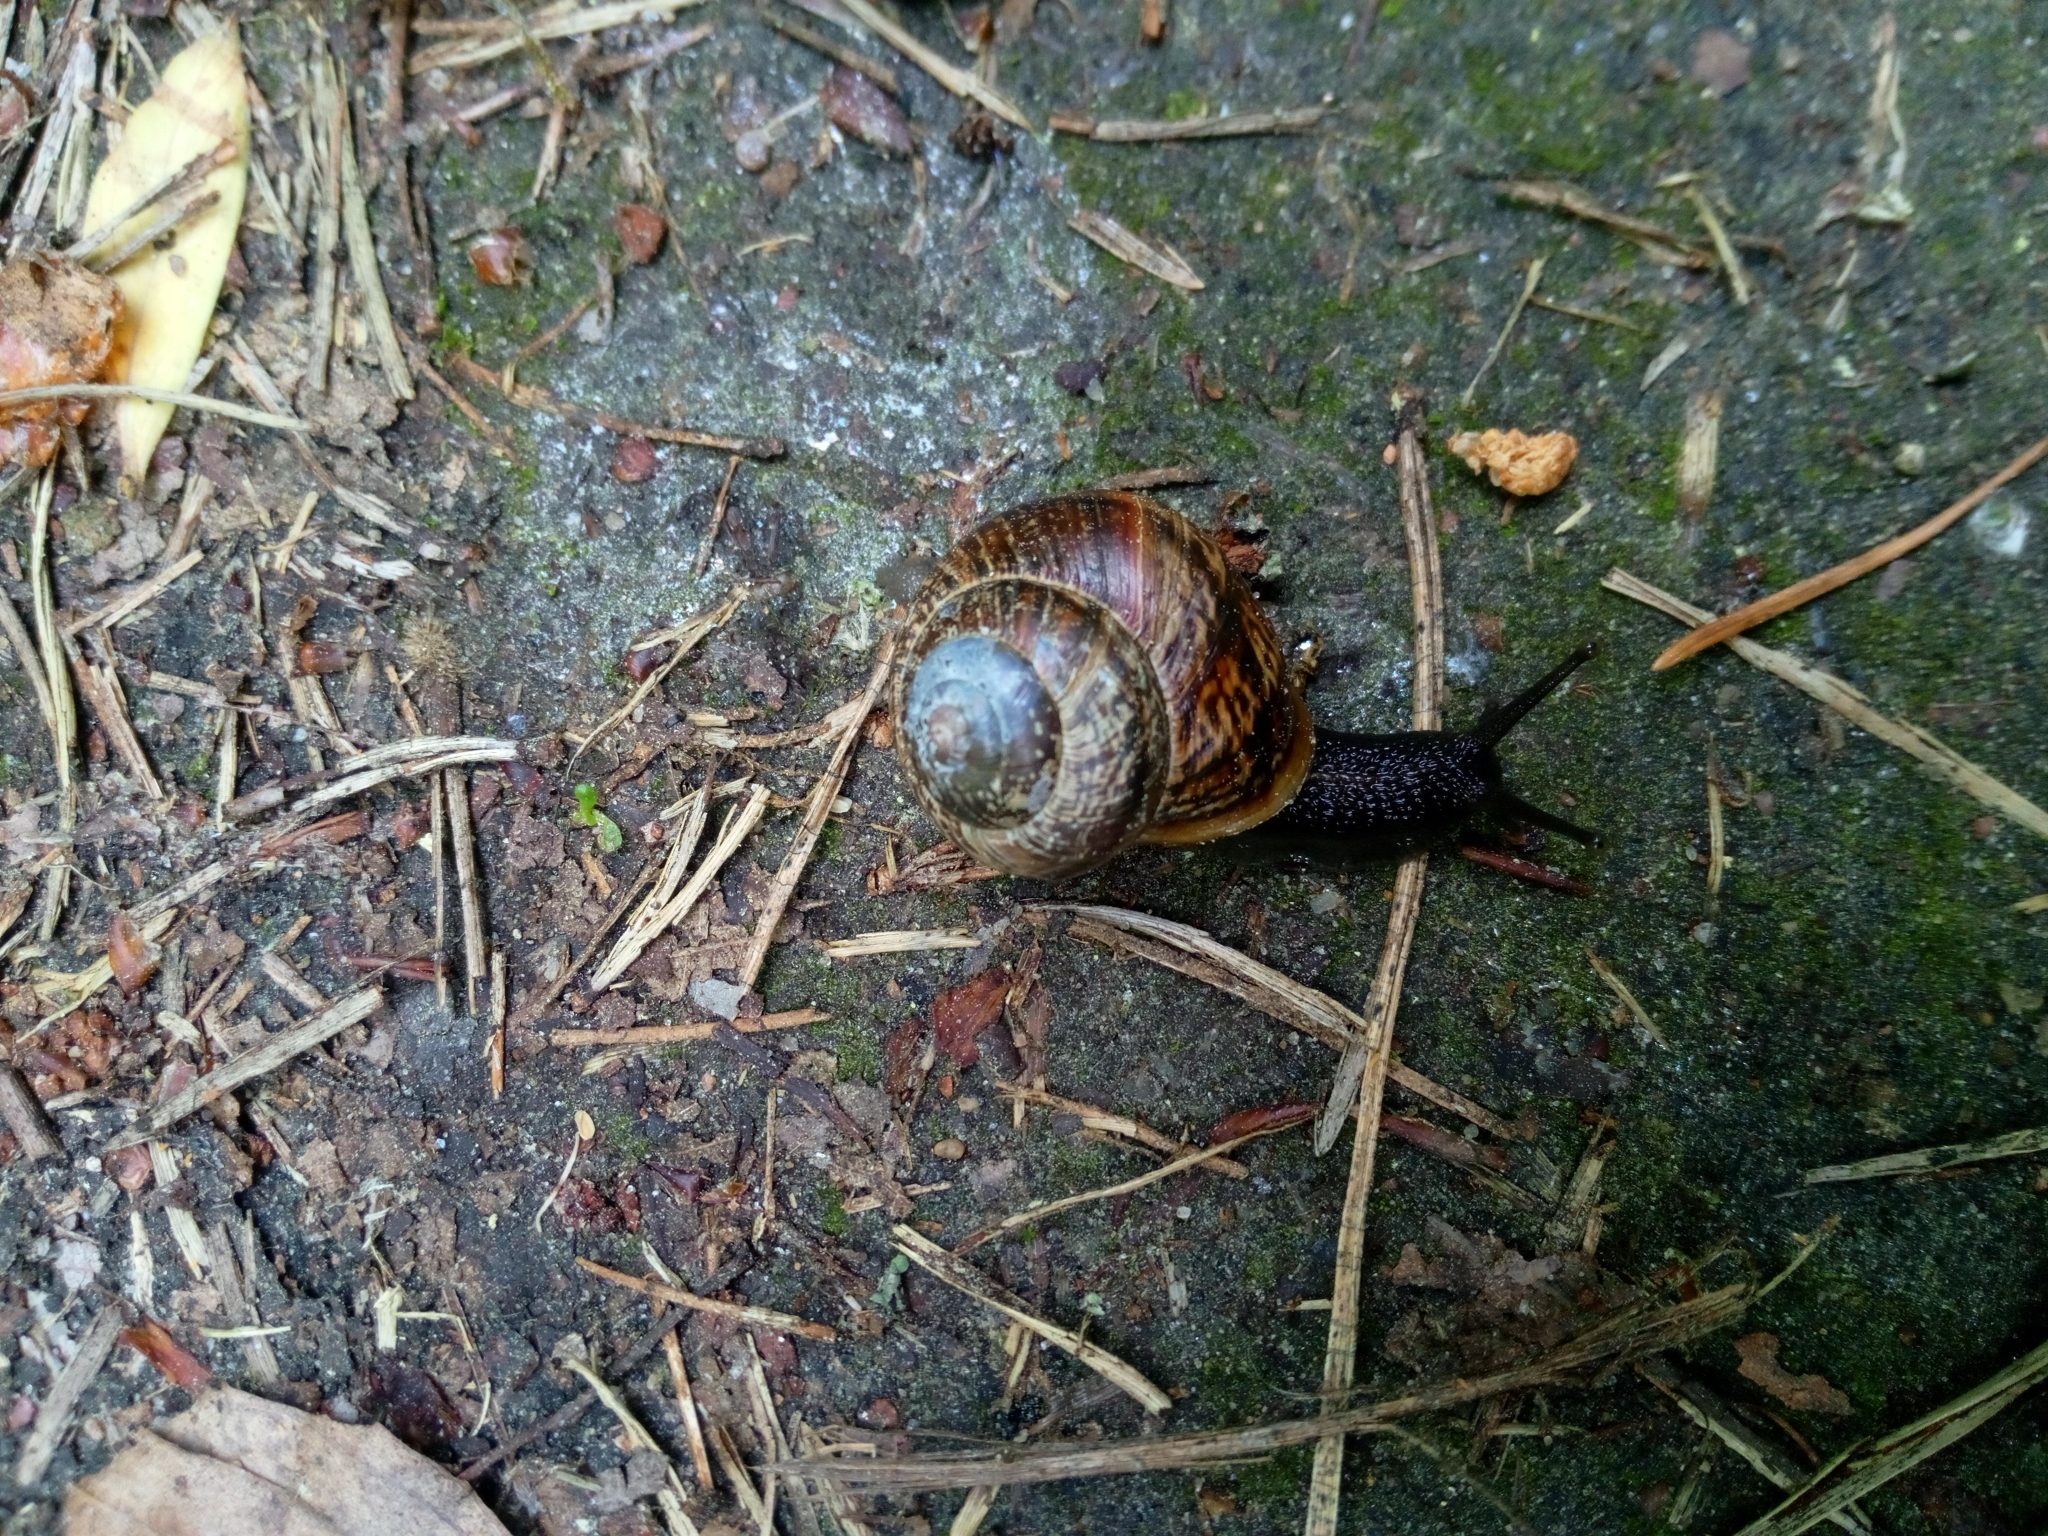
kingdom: Animalia
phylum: Mollusca
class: Gastropoda
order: Stylommatophora
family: Helicidae
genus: Arianta
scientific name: Arianta arbustorum
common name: Copse snail
